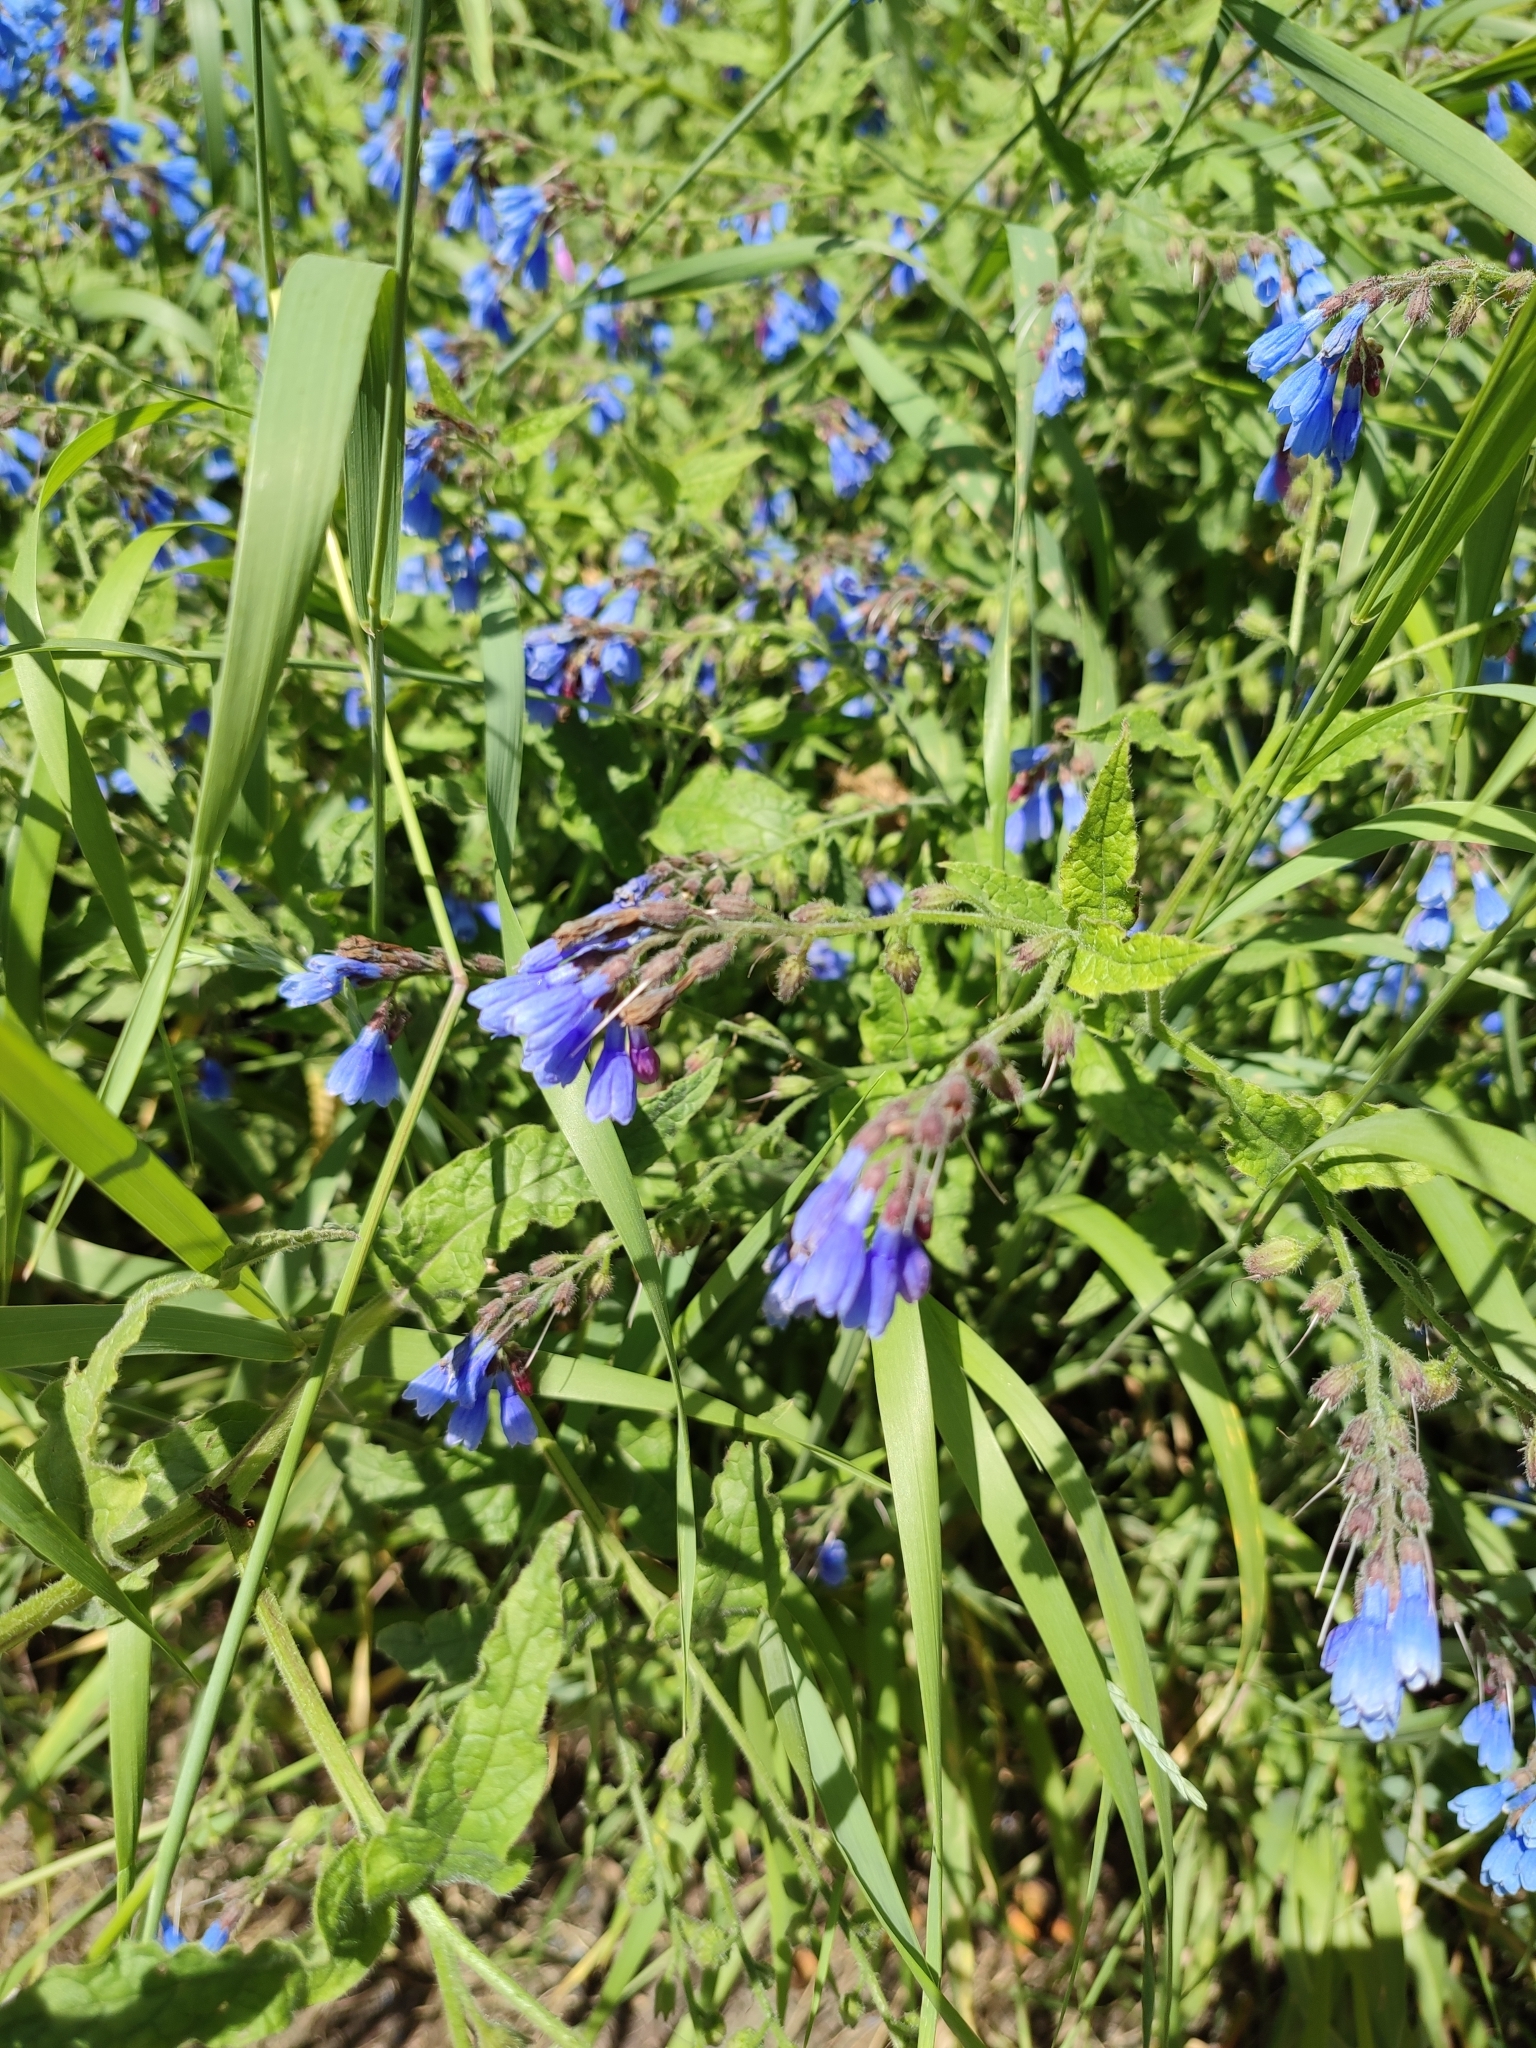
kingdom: Plantae
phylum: Tracheophyta
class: Magnoliopsida
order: Boraginales
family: Boraginaceae
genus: Symphytum
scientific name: Symphytum caucasicum
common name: Caucasian comfrey
